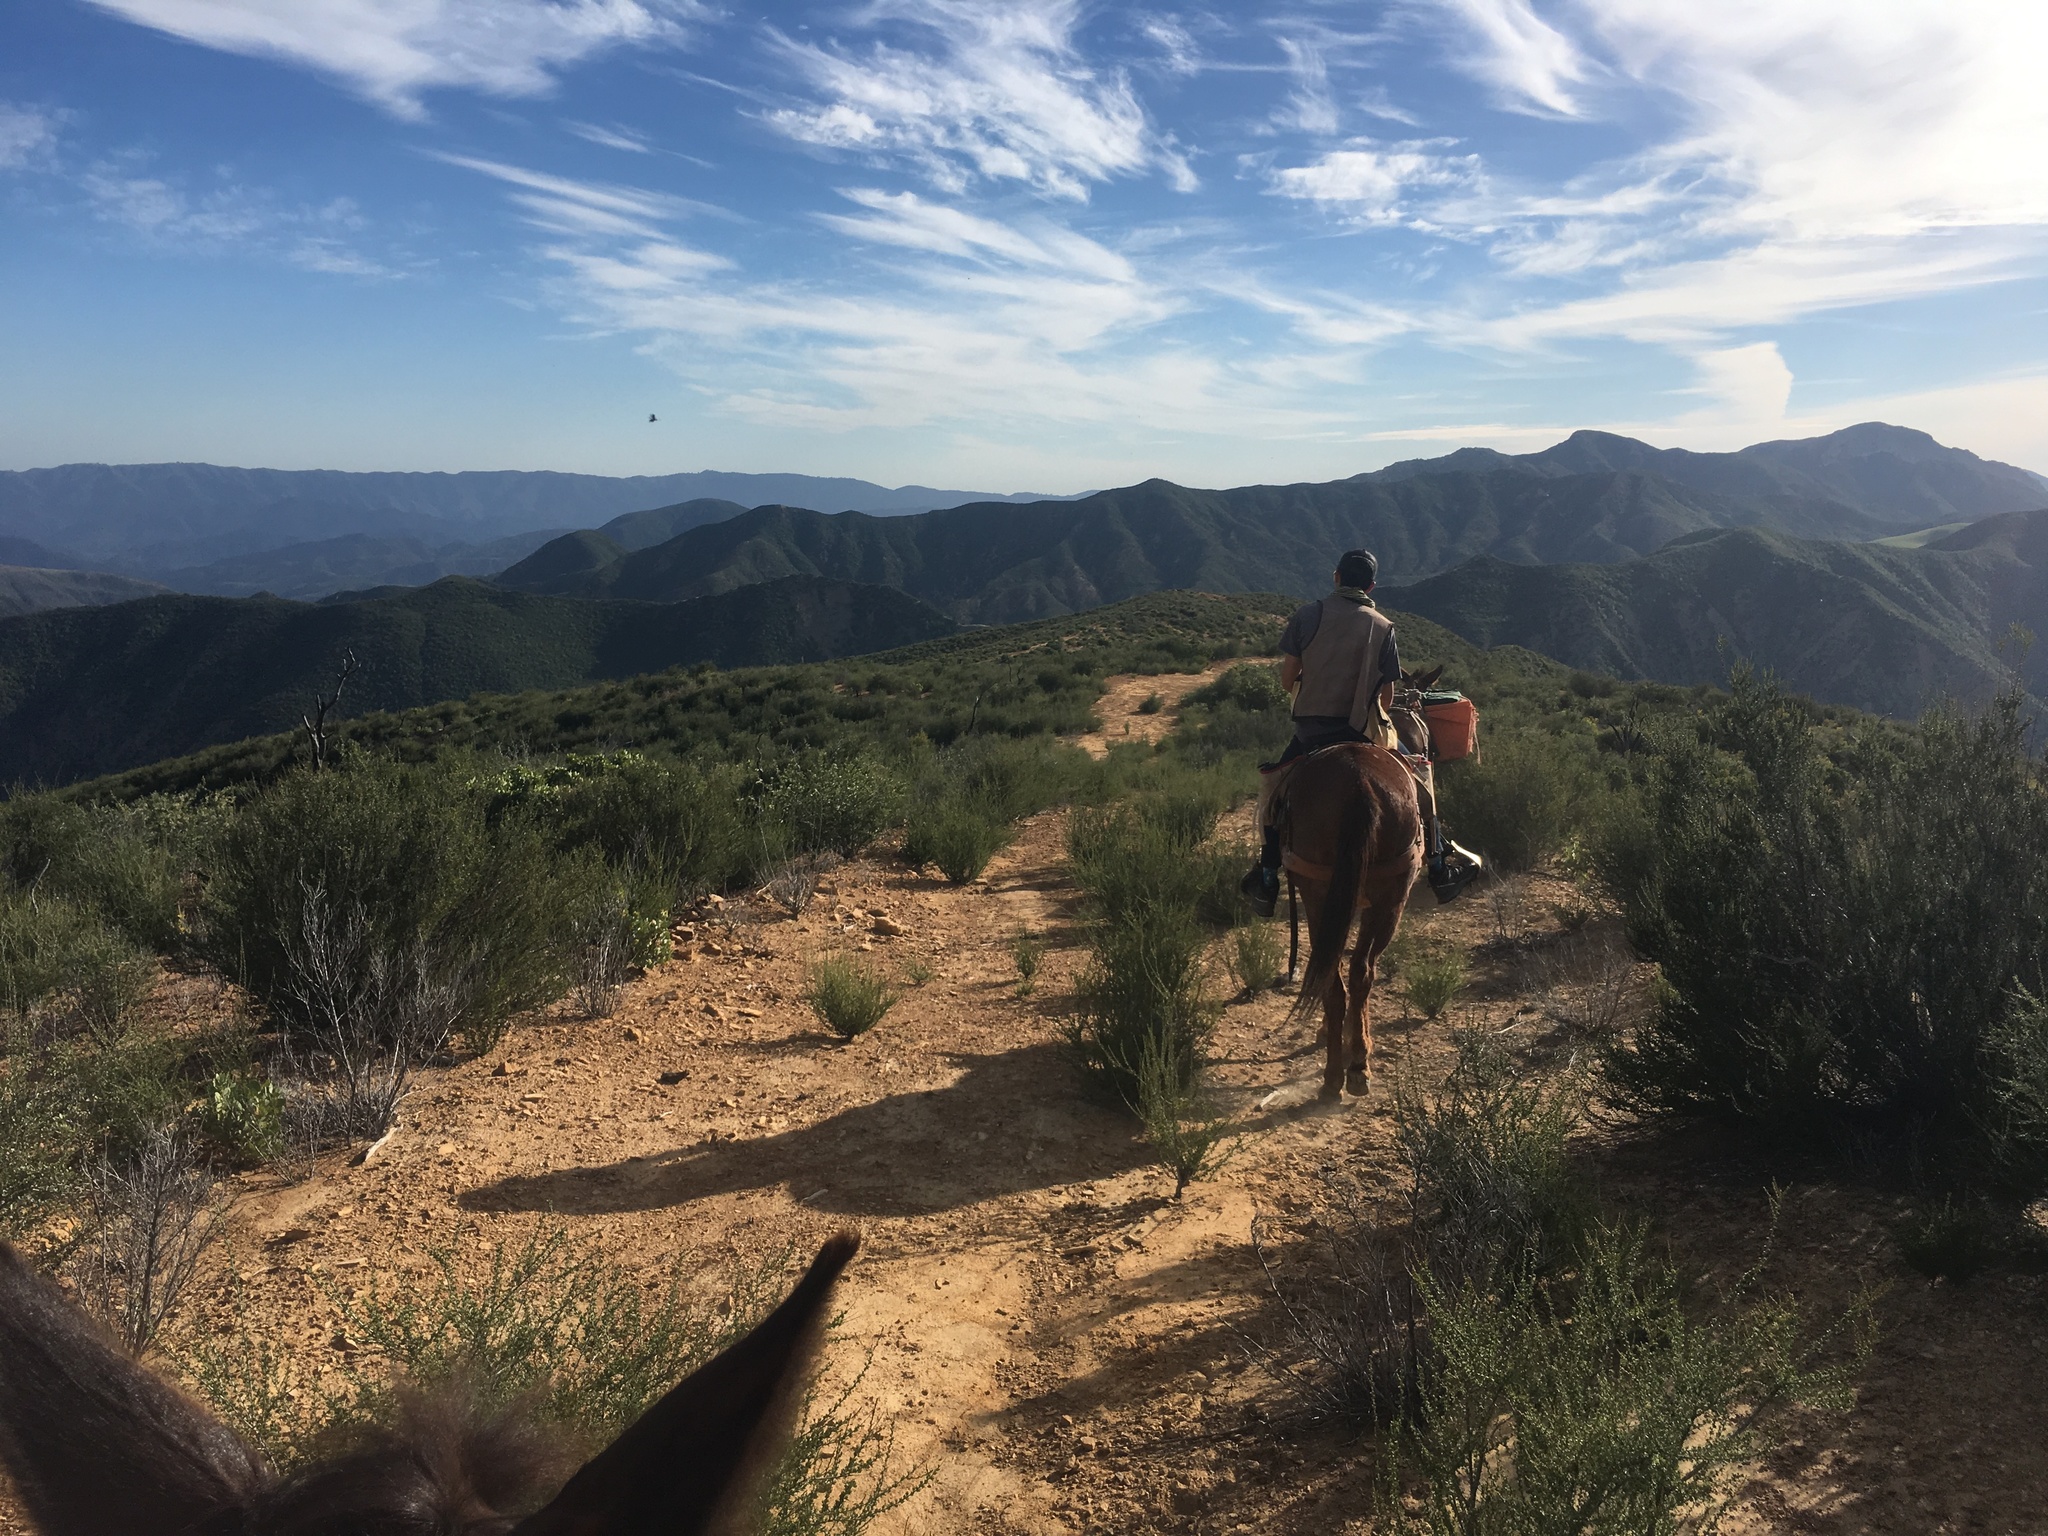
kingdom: Plantae
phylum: Tracheophyta
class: Magnoliopsida
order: Rosales
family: Rosaceae
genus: Adenostoma
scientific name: Adenostoma fasciculatum
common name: Chamise
